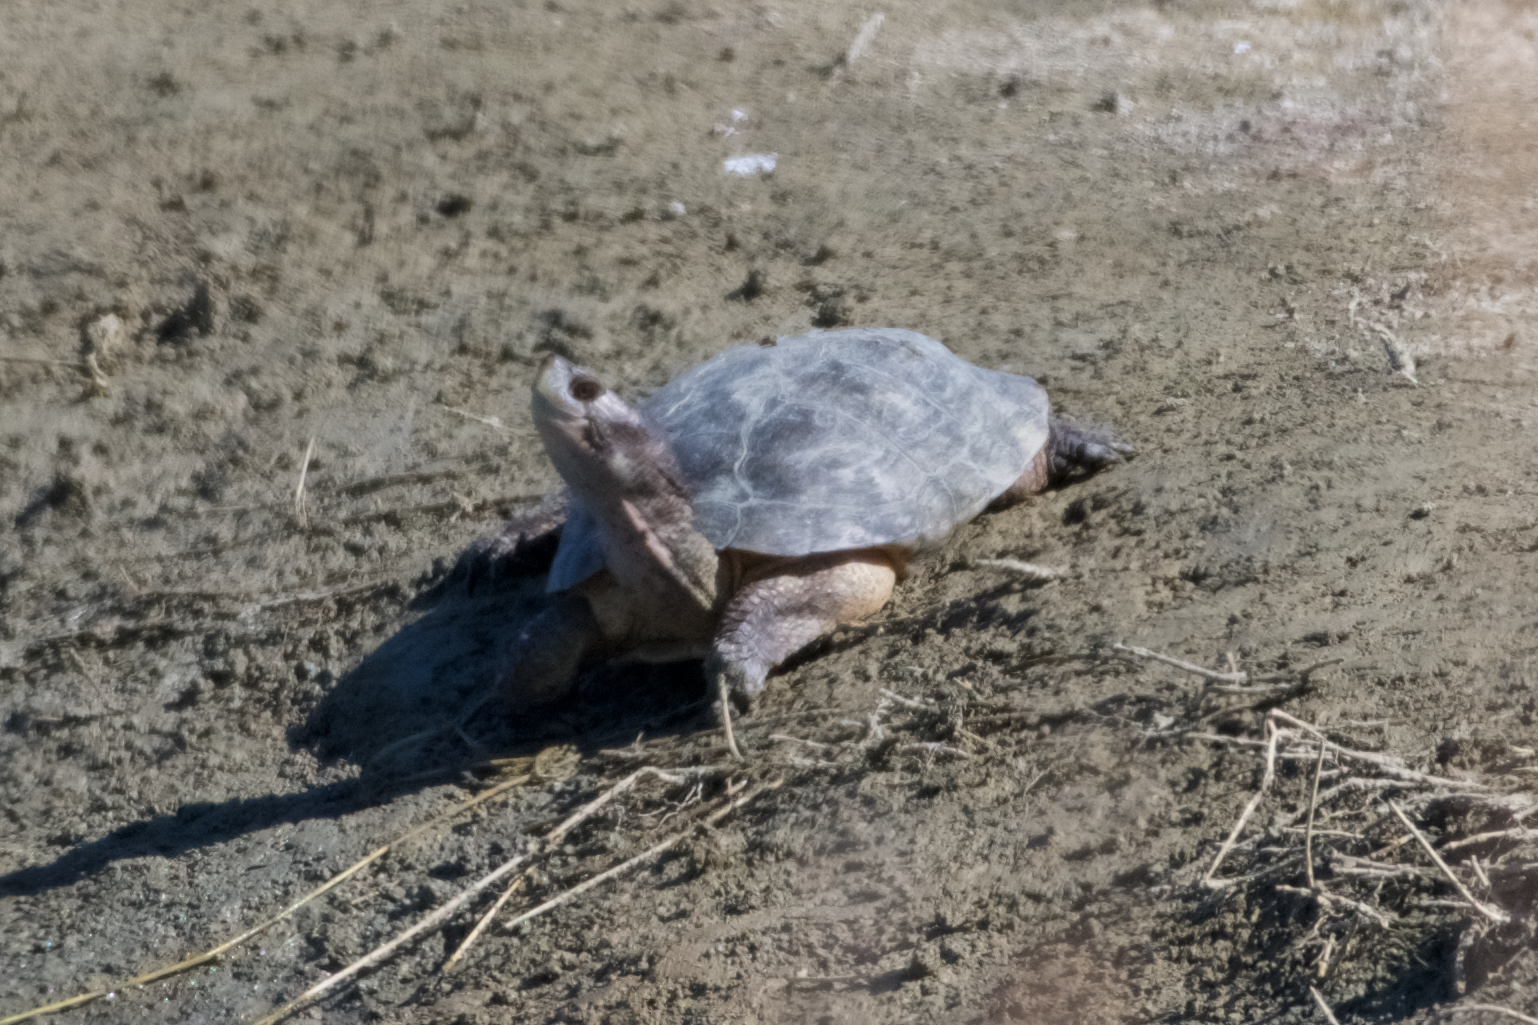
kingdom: Animalia
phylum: Chordata
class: Testudines
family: Emydidae
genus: Actinemys
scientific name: Actinemys marmorata
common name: Western pond turtle
